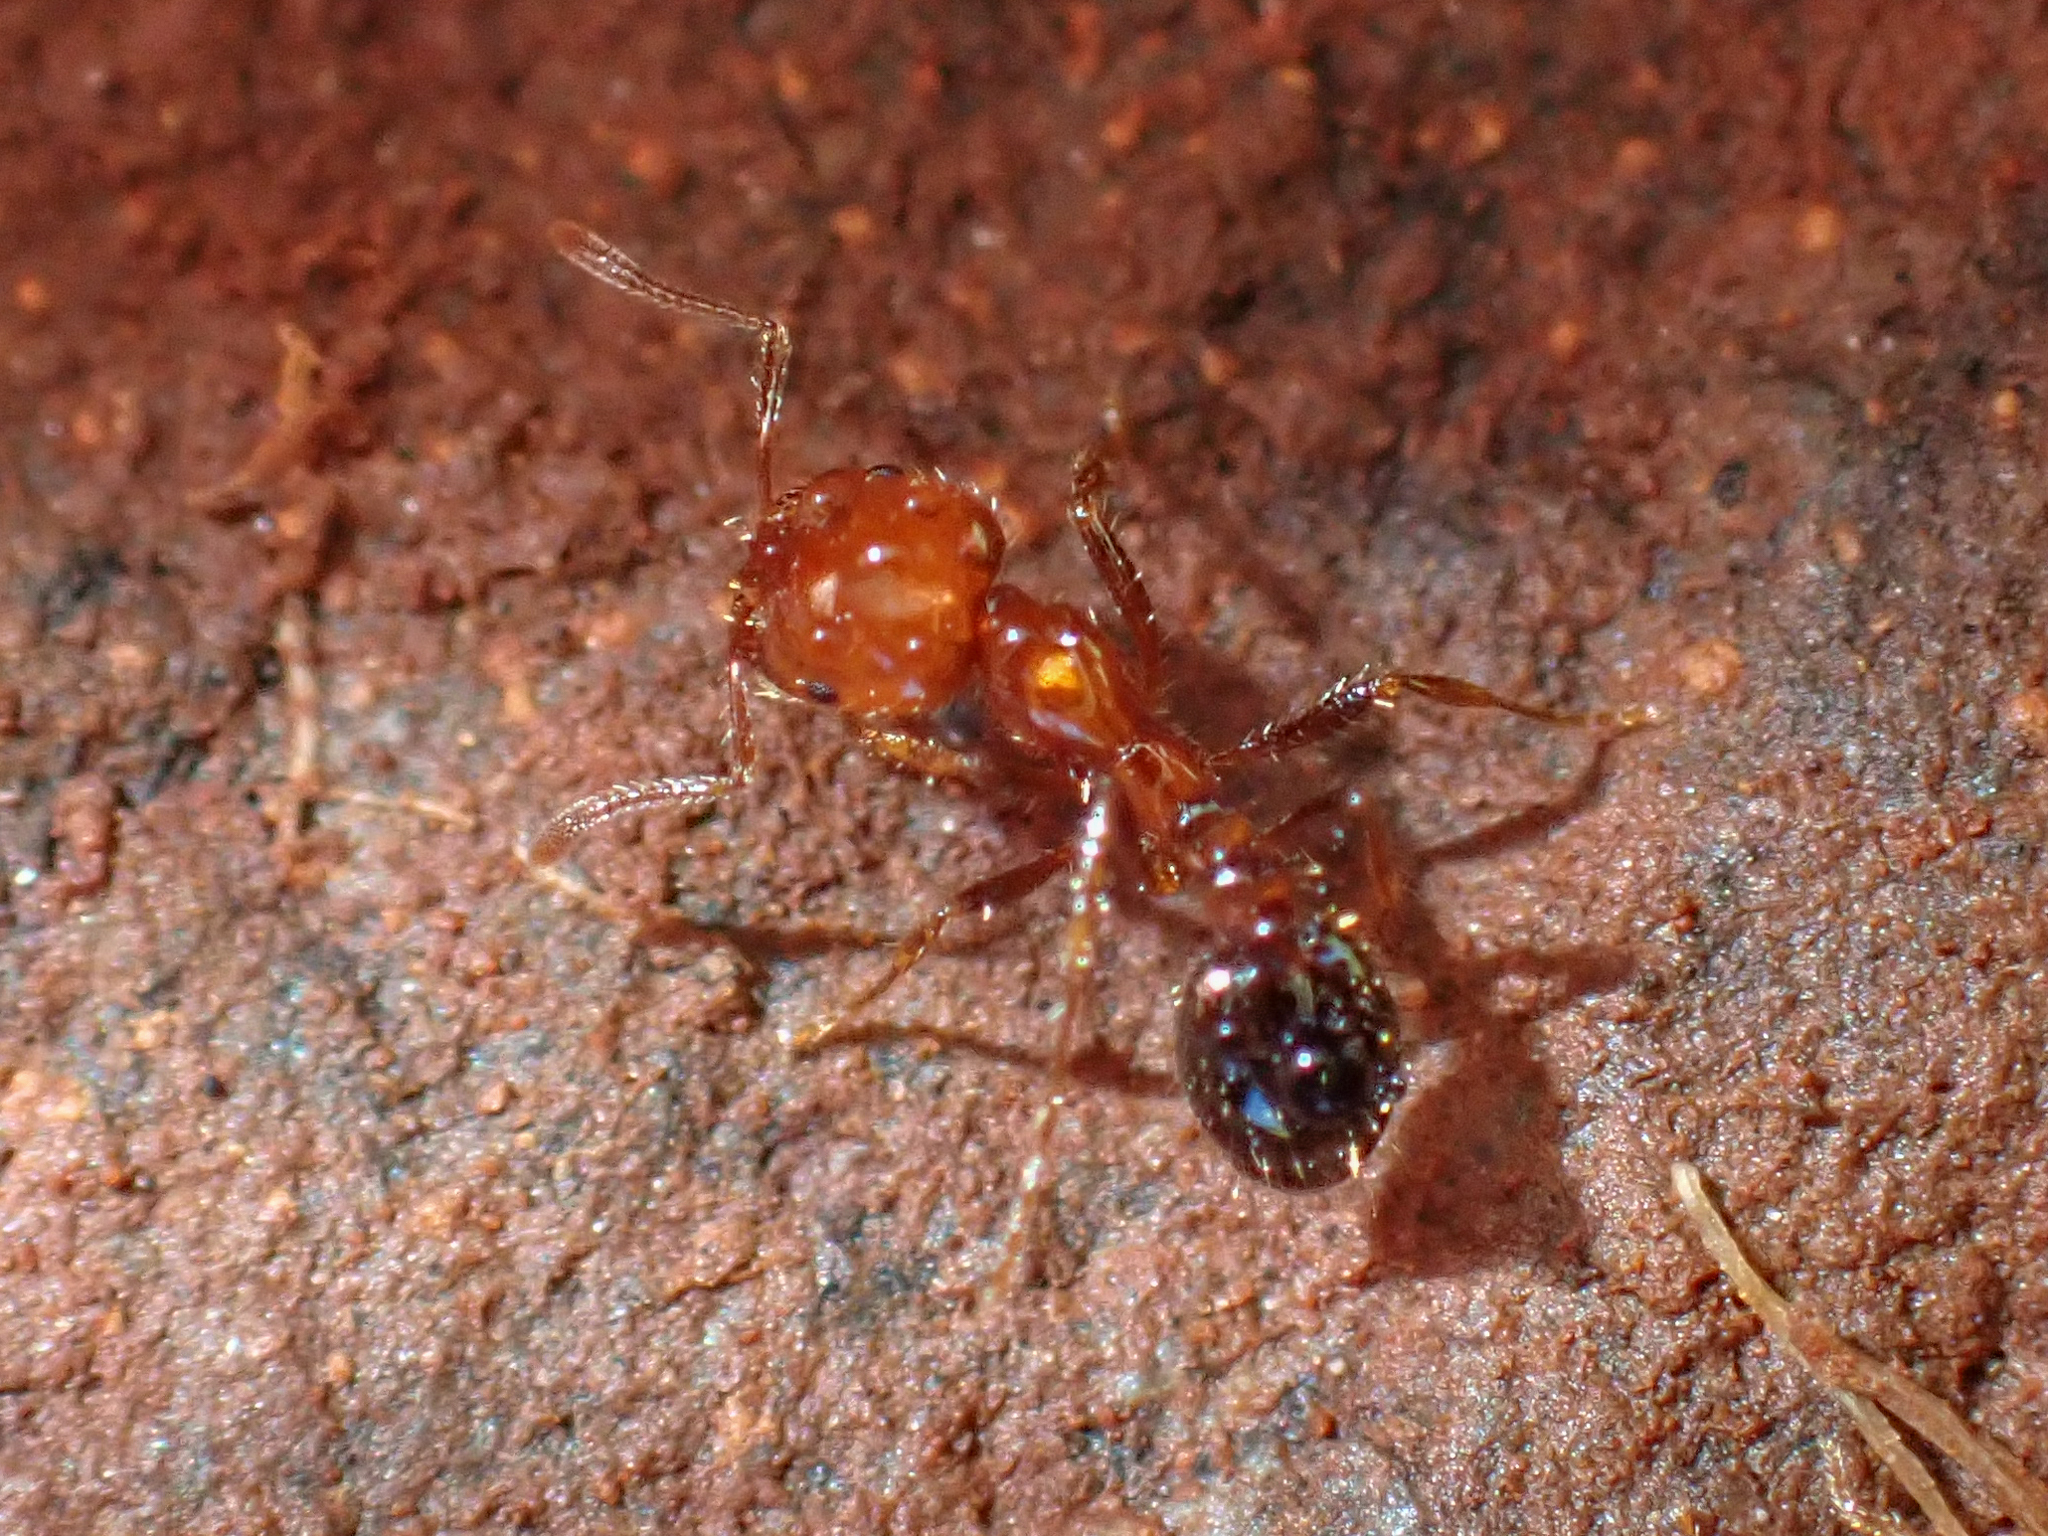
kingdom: Animalia
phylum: Arthropoda
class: Insecta
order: Hymenoptera
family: Formicidae
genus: Solenopsis
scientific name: Solenopsis xyloni
